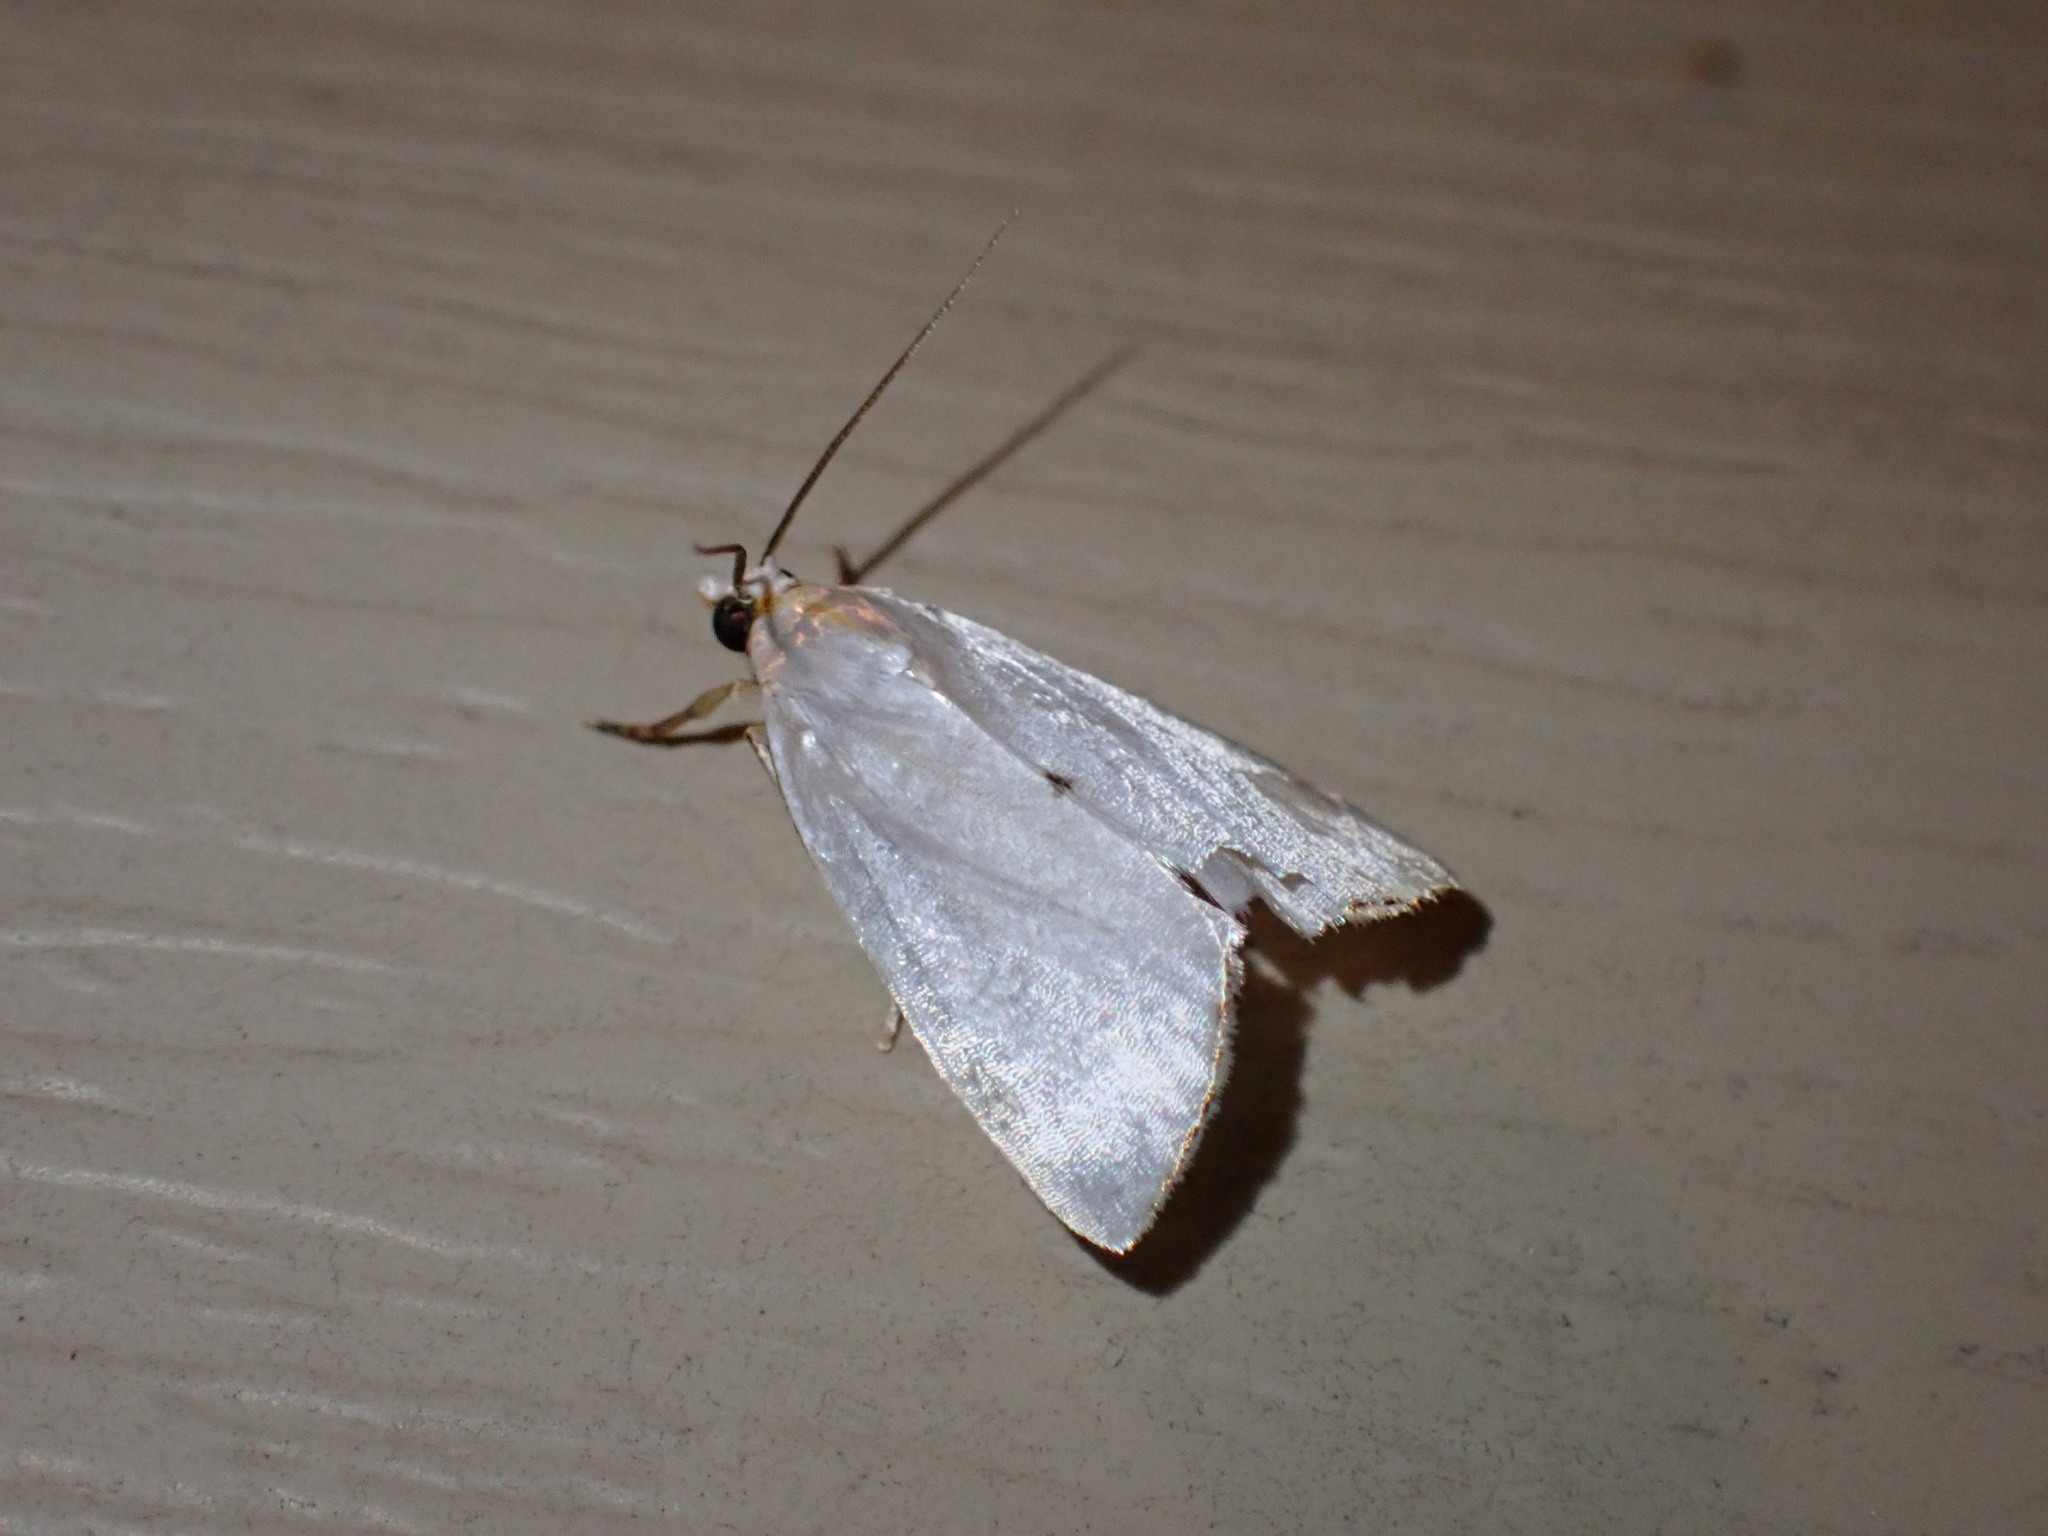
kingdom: Animalia
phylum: Arthropoda
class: Insecta
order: Lepidoptera
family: Crambidae
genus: Argyria
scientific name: Argyria nivalis
